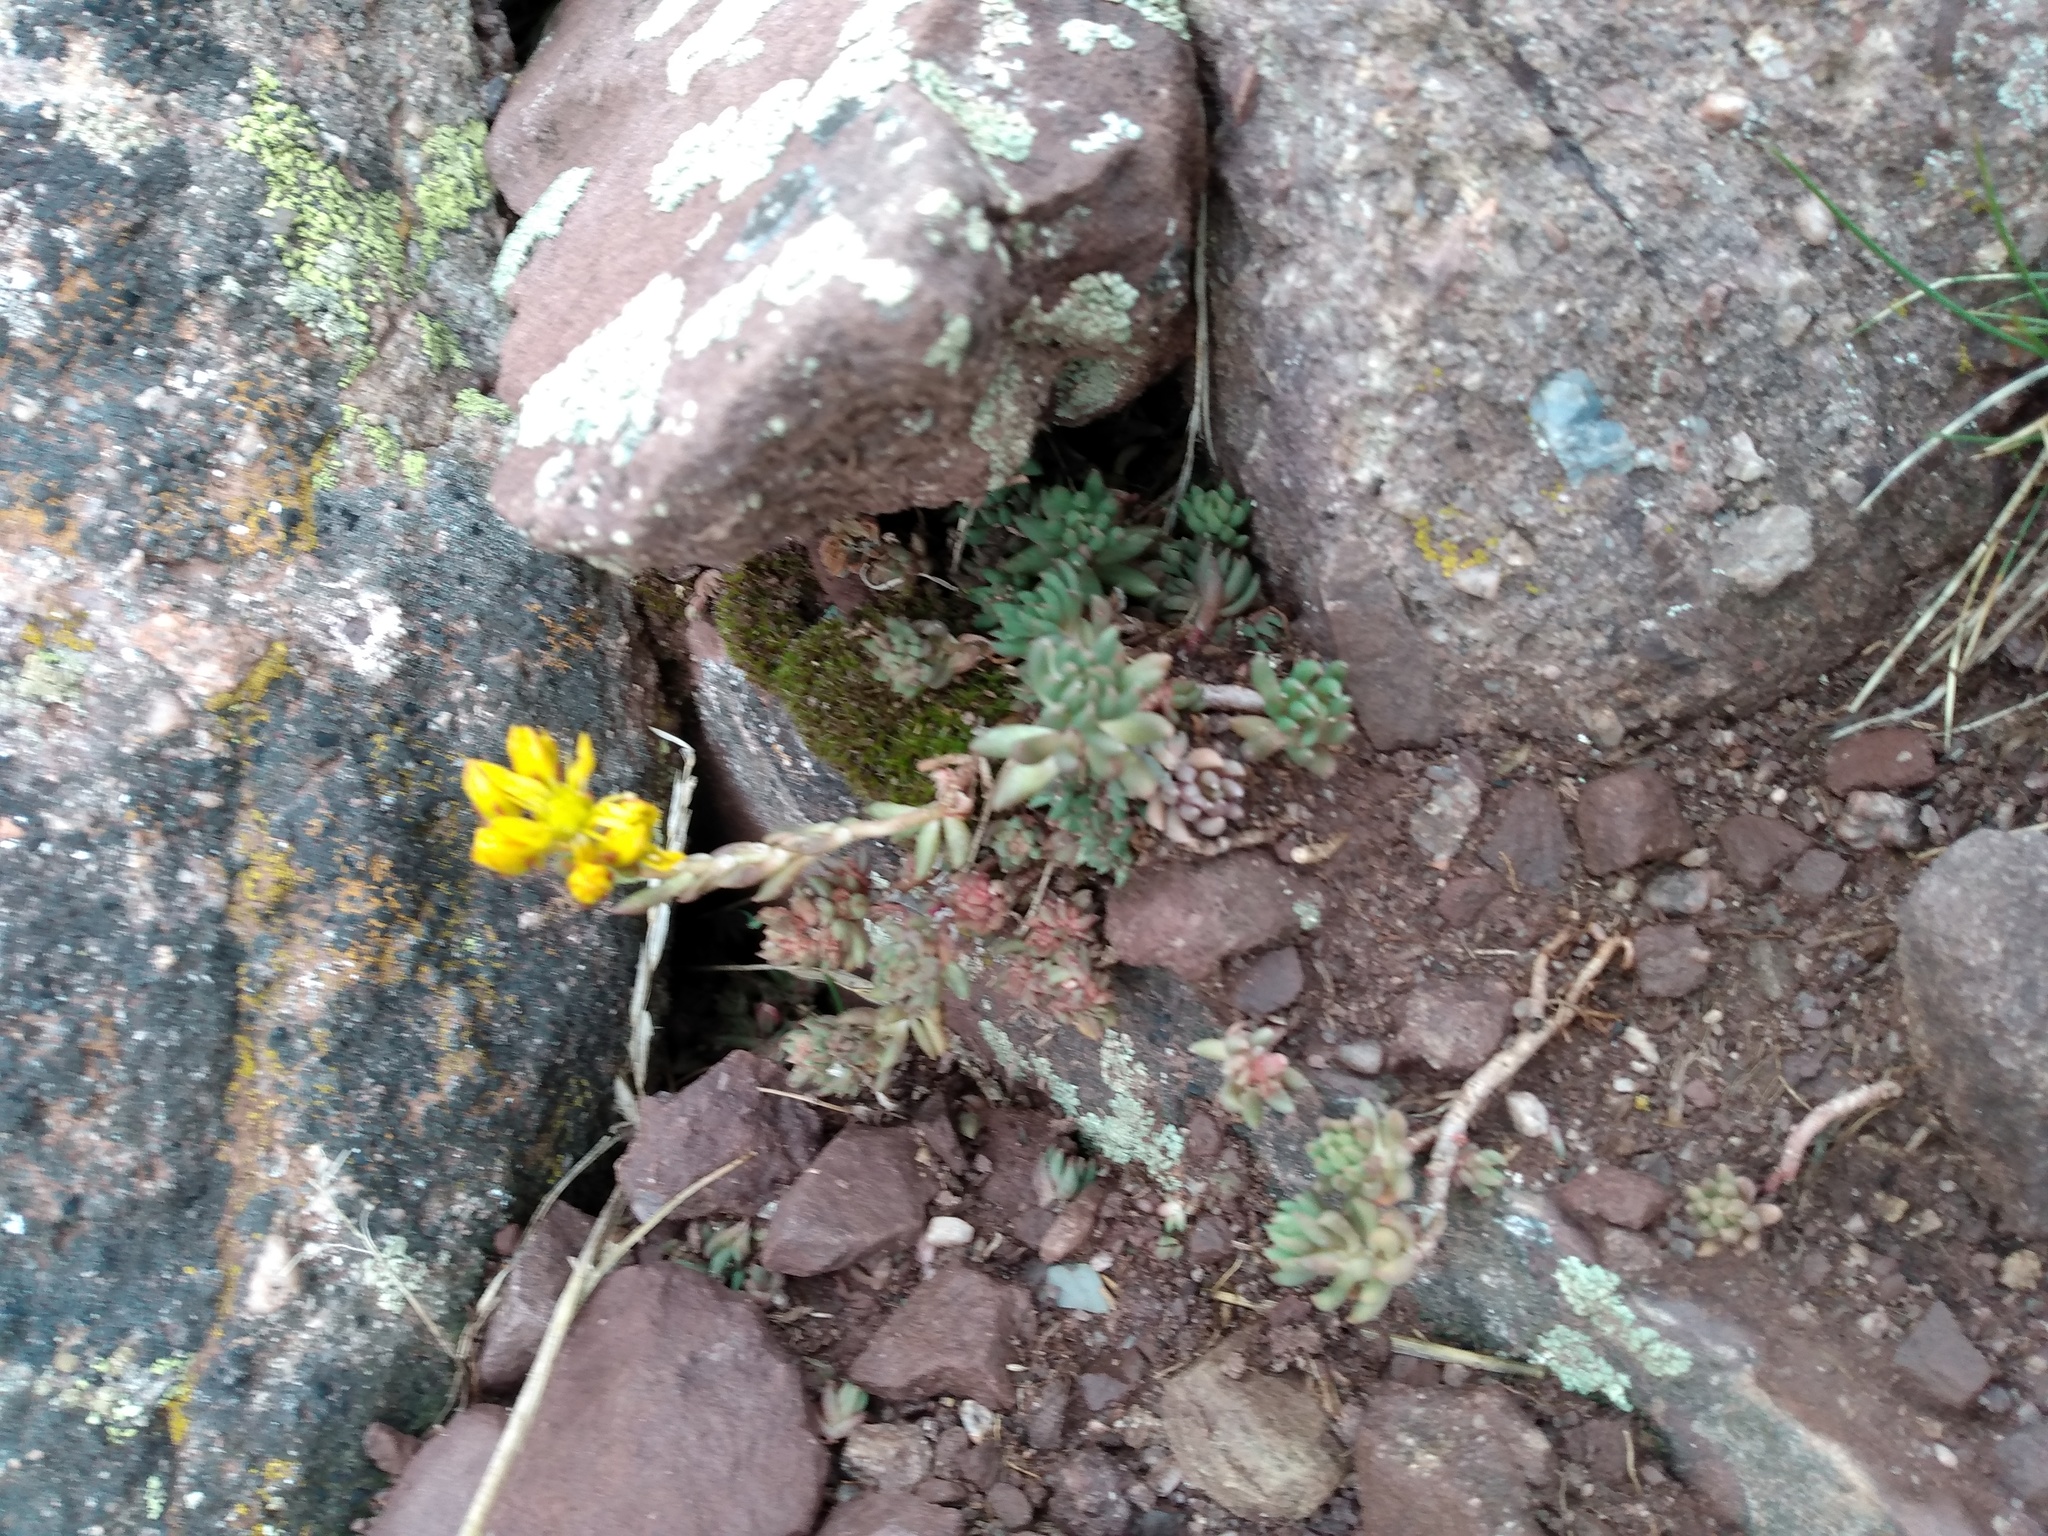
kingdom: Plantae
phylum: Tracheophyta
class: Magnoliopsida
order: Saxifragales
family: Crassulaceae
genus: Sedum
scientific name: Sedum lanceolatum
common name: Common stonecrop
